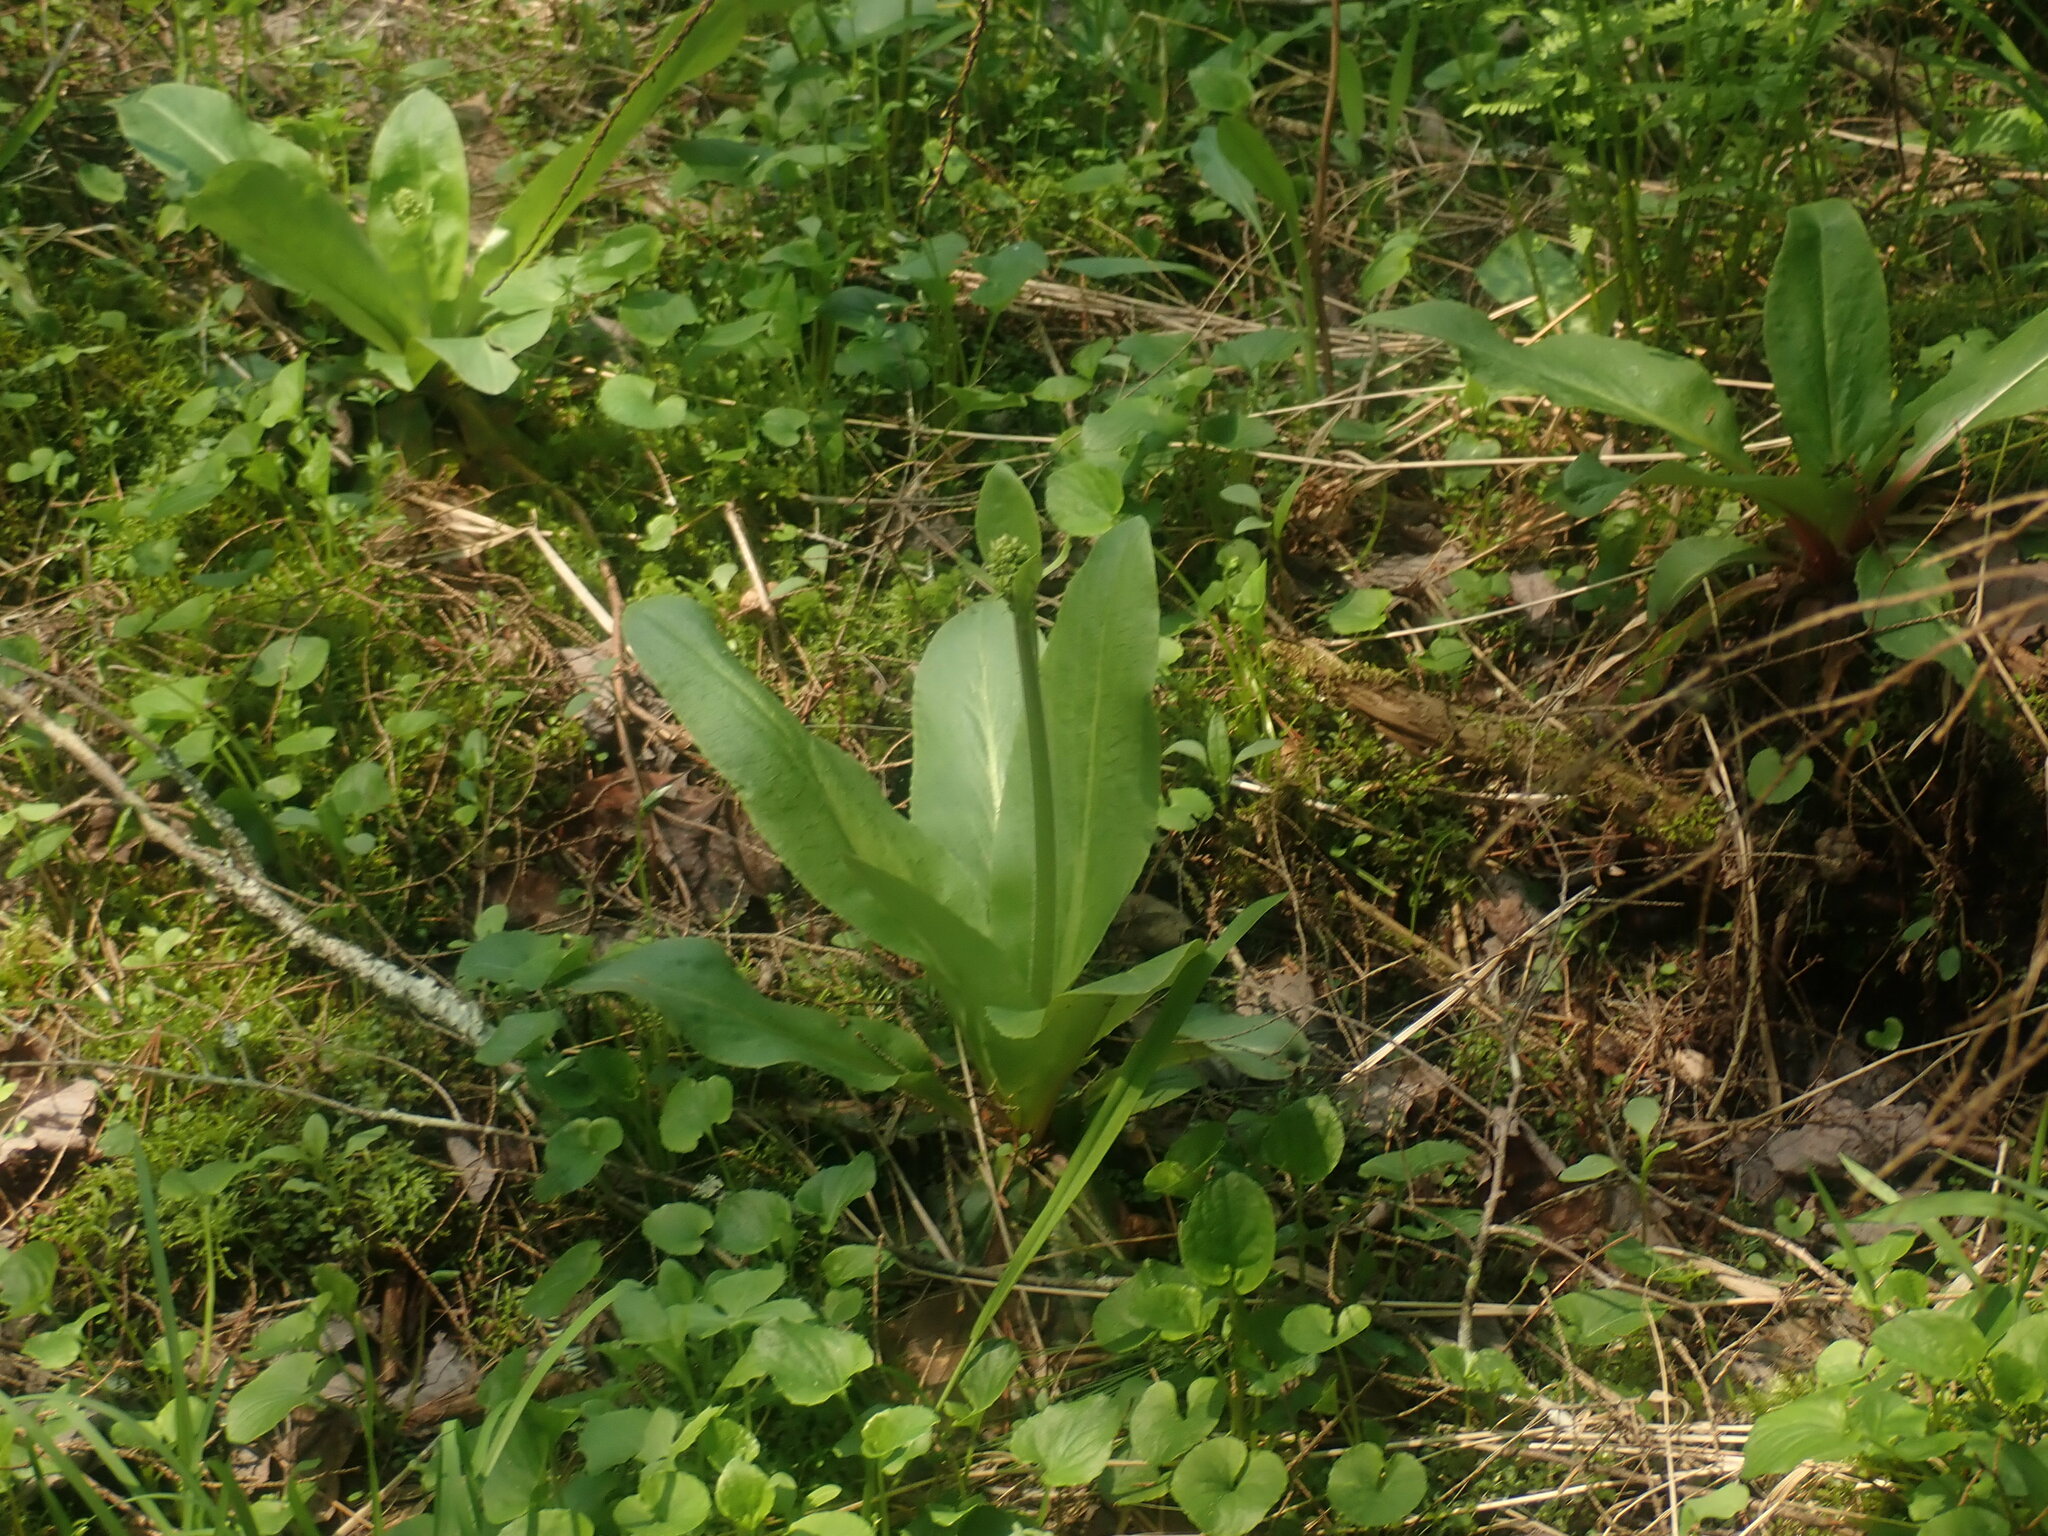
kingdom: Plantae
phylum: Tracheophyta
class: Magnoliopsida
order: Saxifragales
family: Saxifragaceae
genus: Micranthes
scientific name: Micranthes pensylvanica
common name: Marsh saxifrage
